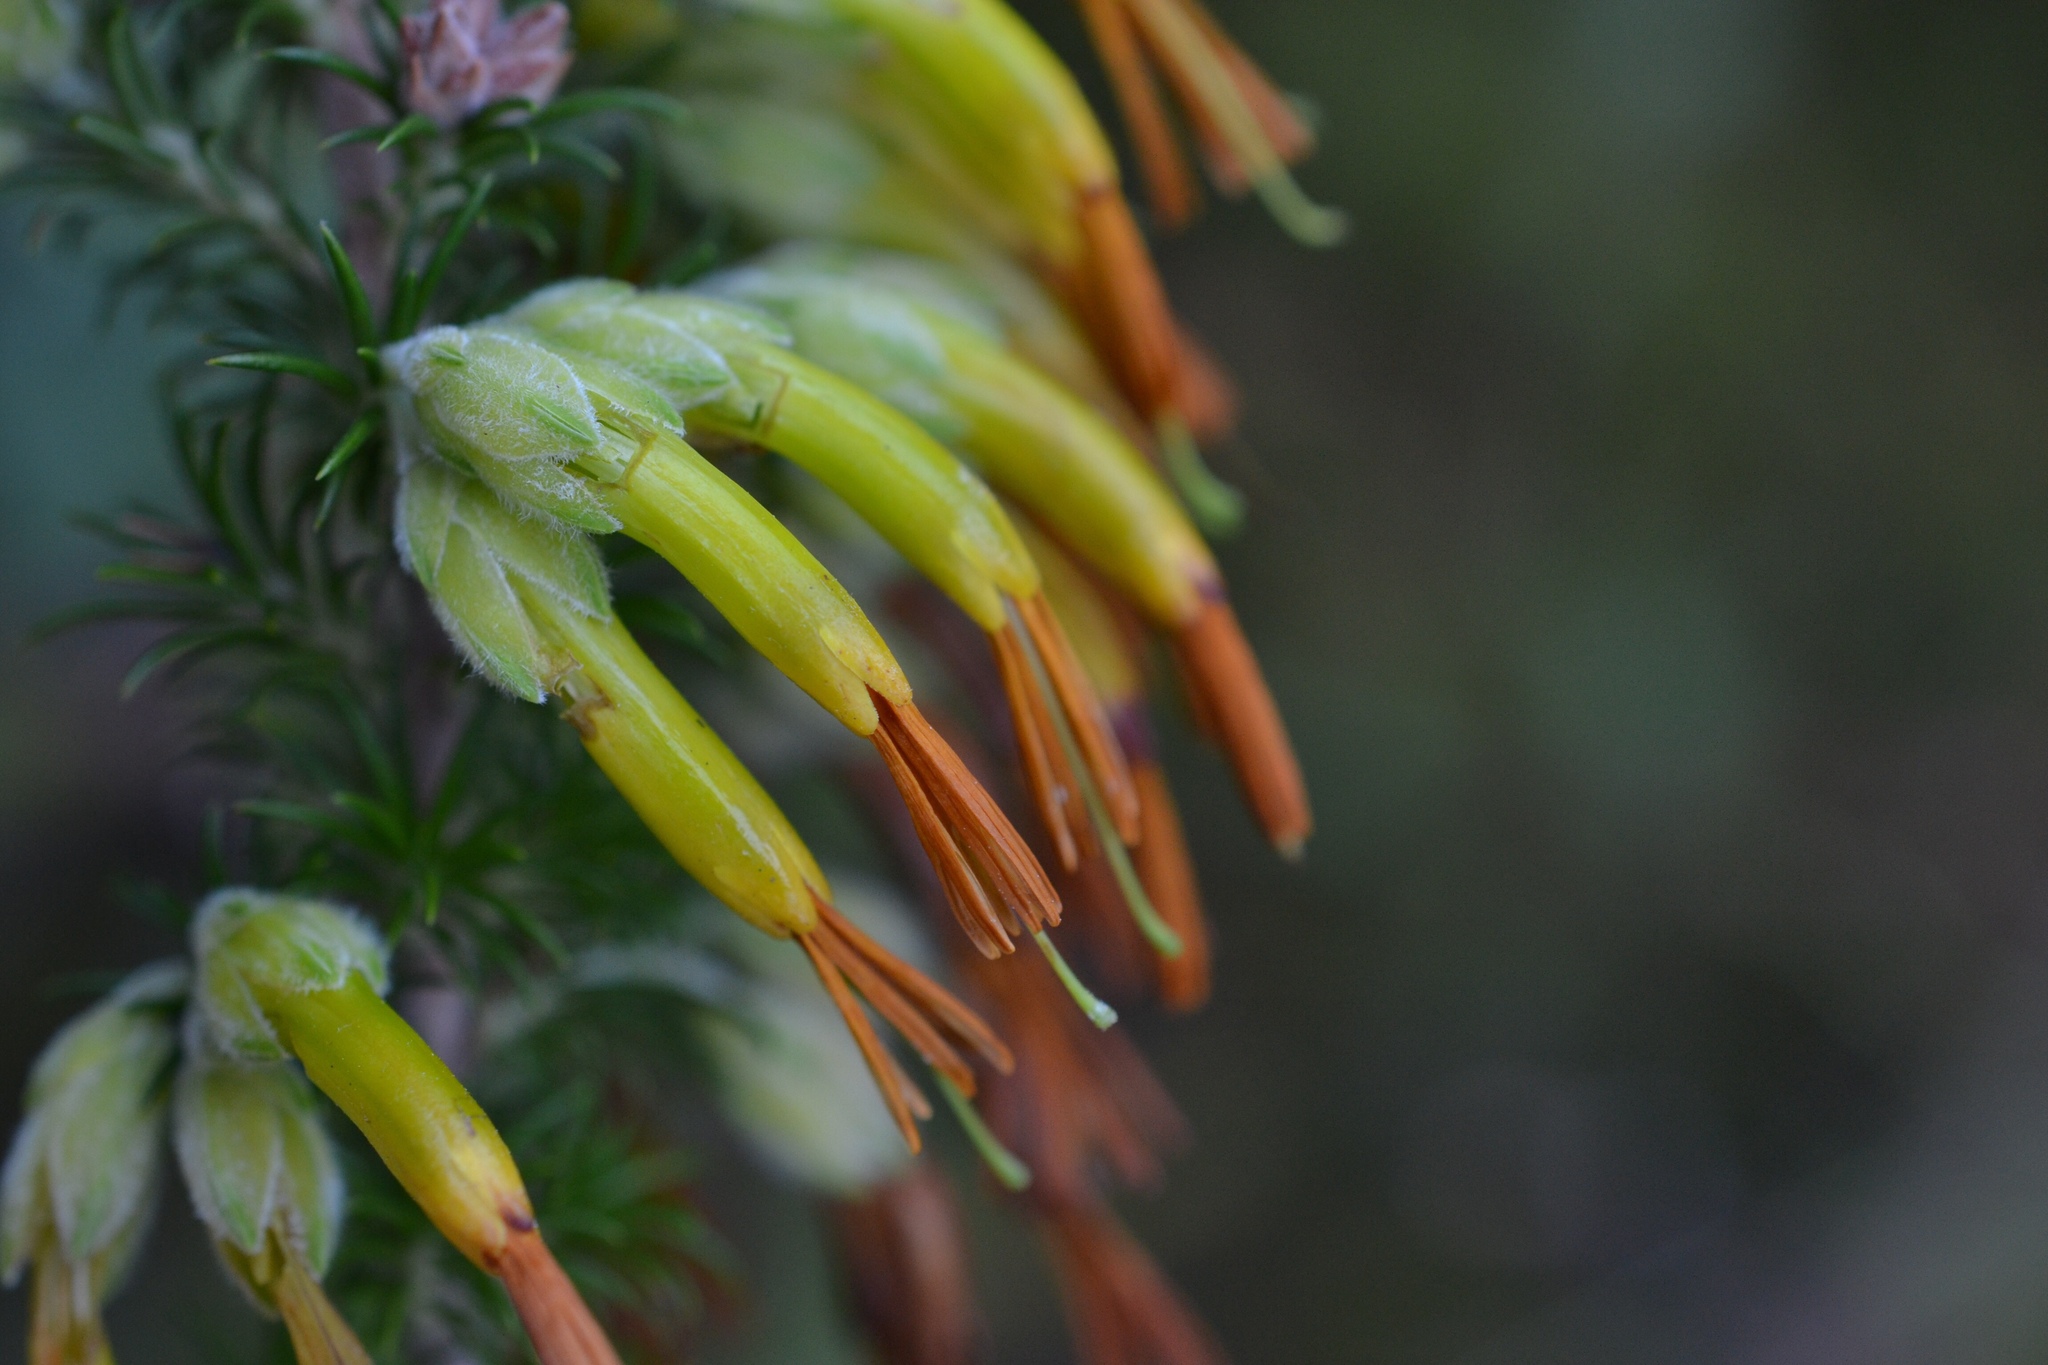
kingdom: Plantae
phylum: Tracheophyta
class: Magnoliopsida
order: Ericales
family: Ericaceae
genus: Erica
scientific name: Erica coccinea
